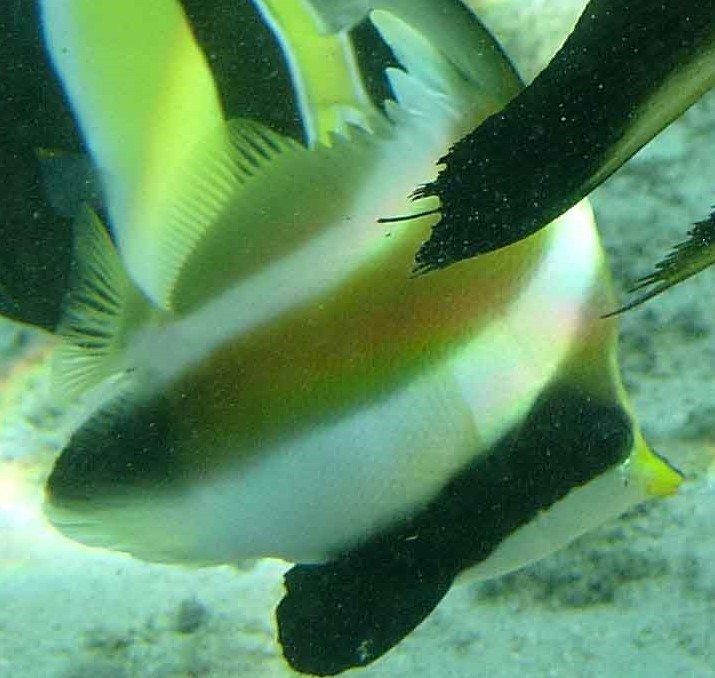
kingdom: Animalia
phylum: Chordata
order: Perciformes
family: Chaetodontidae
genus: Heniochus
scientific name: Heniochus chrysostomus
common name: Horned bannerfish
